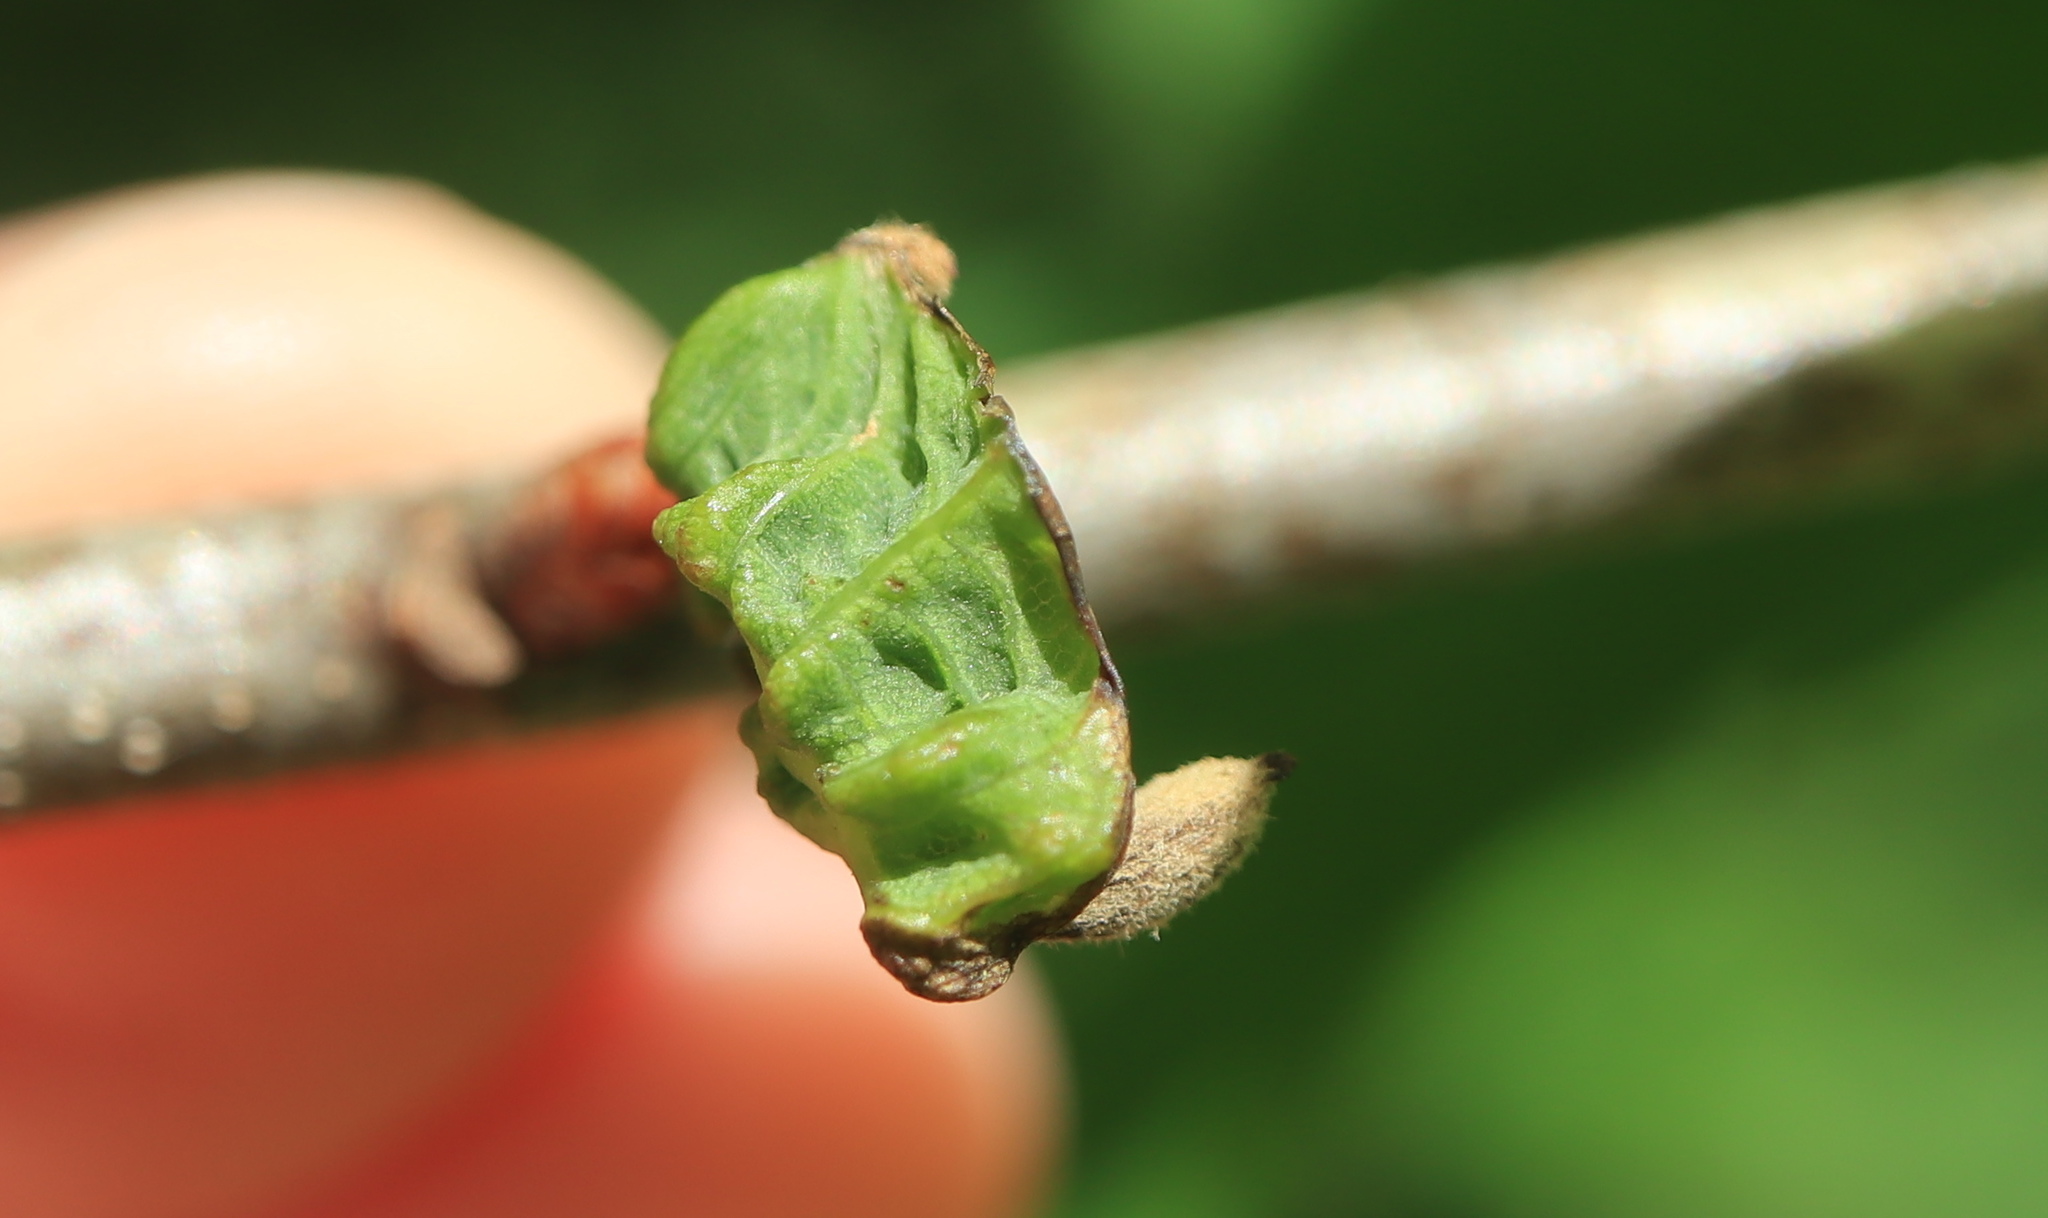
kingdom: Animalia
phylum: Arthropoda
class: Insecta
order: Hymenoptera
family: Cynipidae
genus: Andricus
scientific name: Andricus
